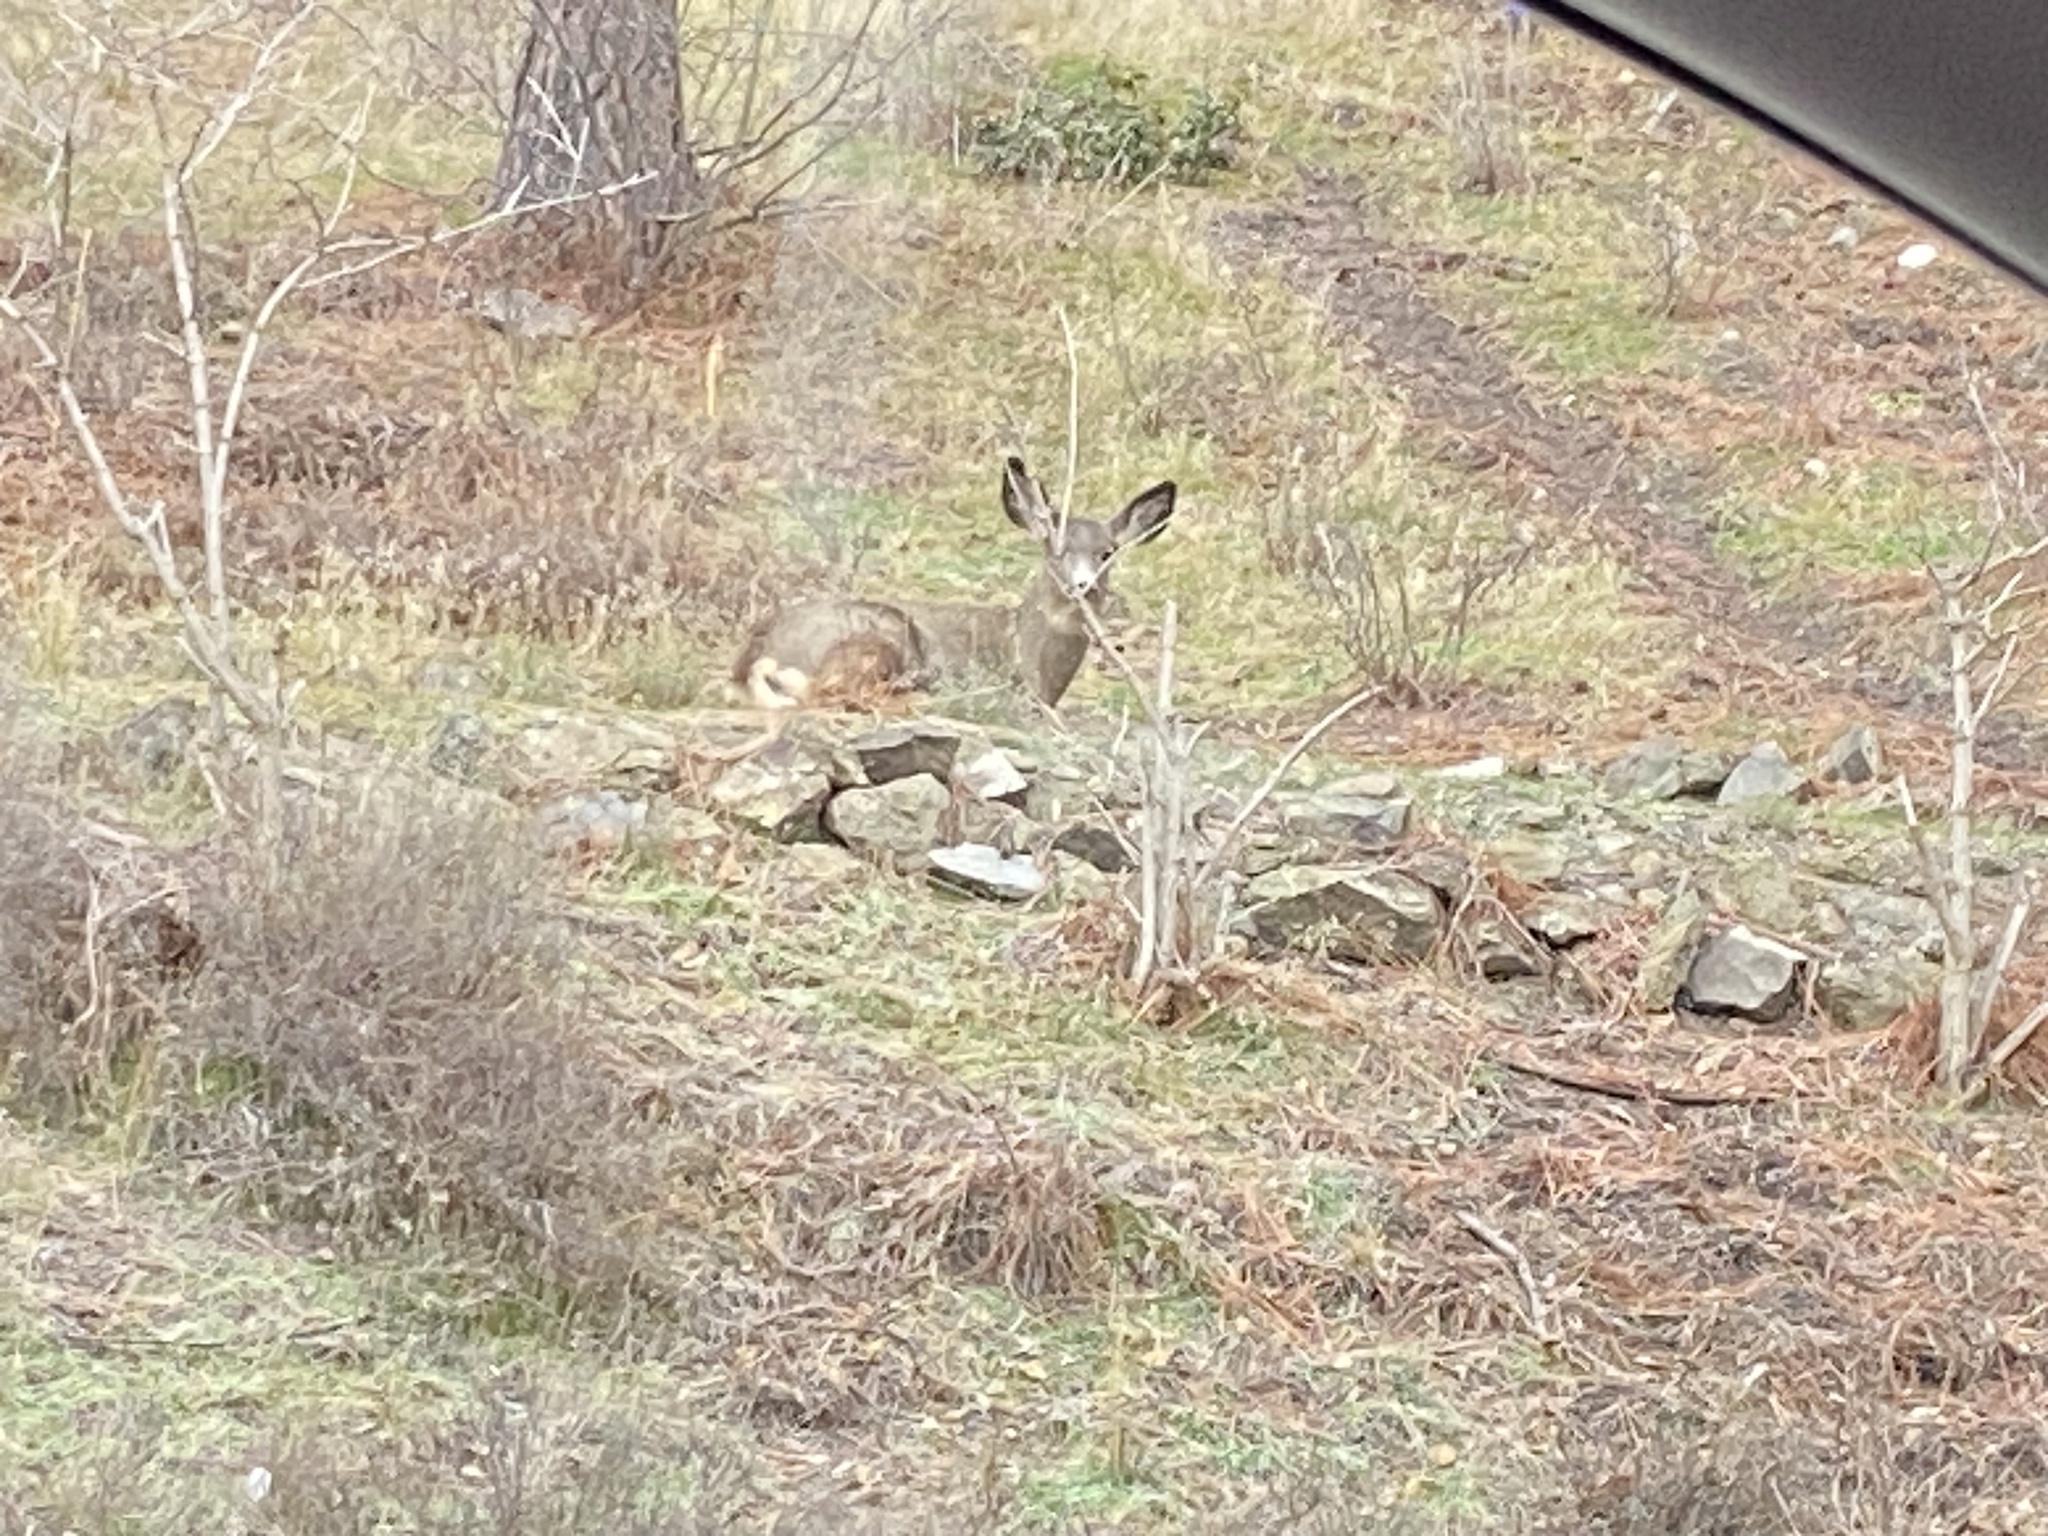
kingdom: Animalia
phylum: Chordata
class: Mammalia
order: Artiodactyla
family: Cervidae
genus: Odocoileus
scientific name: Odocoileus hemionus
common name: Mule deer
